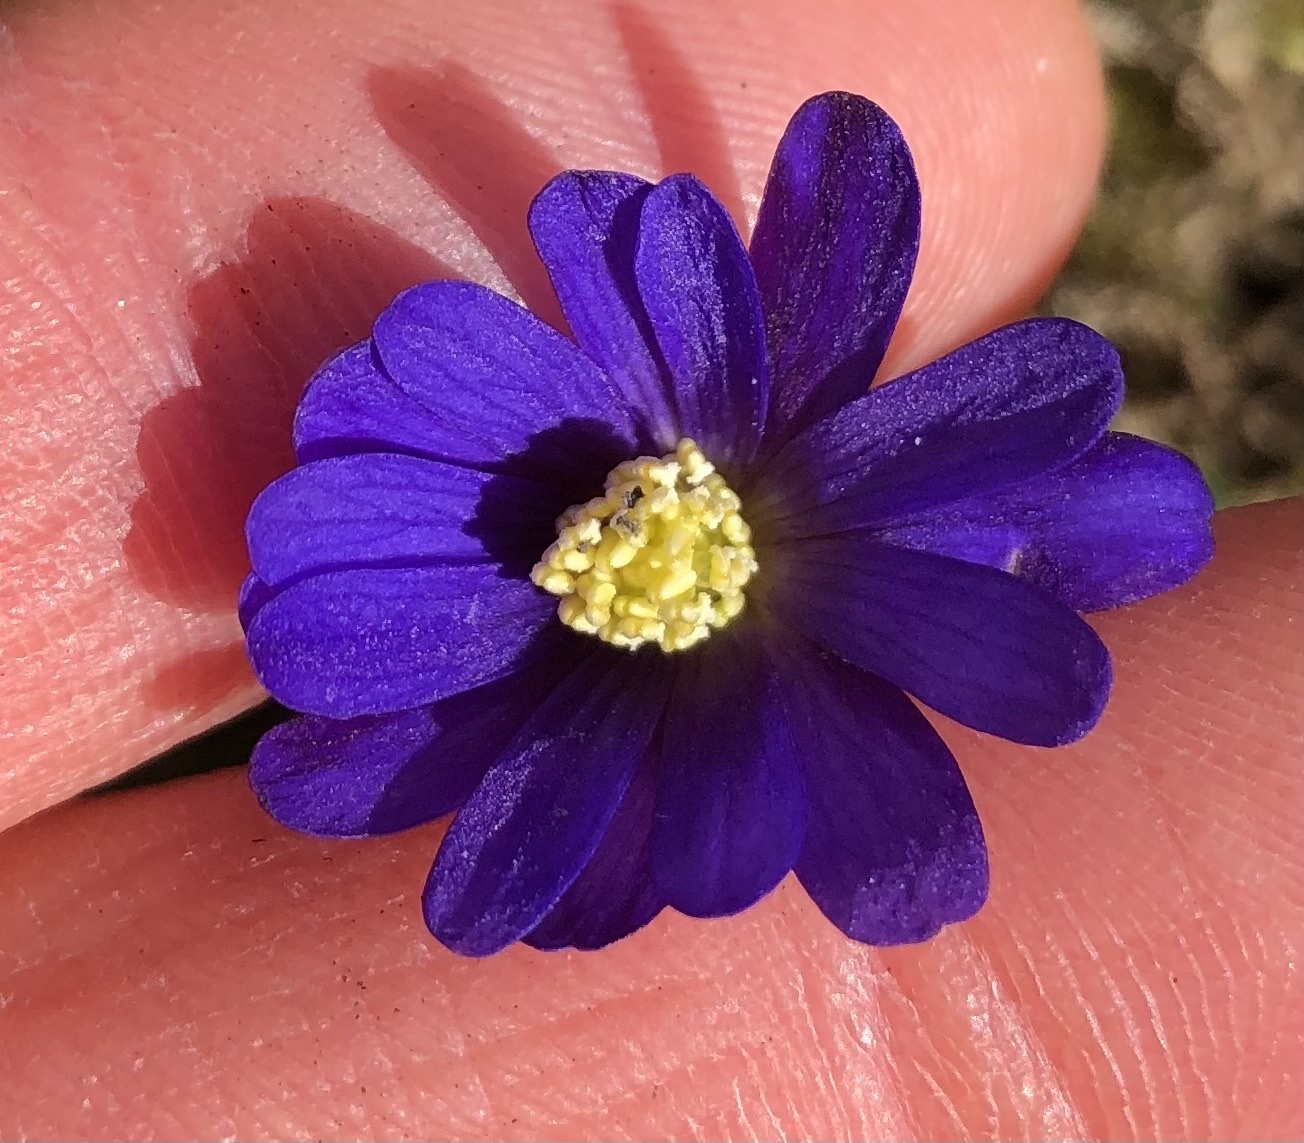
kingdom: Plantae
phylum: Tracheophyta
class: Magnoliopsida
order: Ranunculales
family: Ranunculaceae
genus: Anemone
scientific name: Anemone blanda
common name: Balkan anemone
